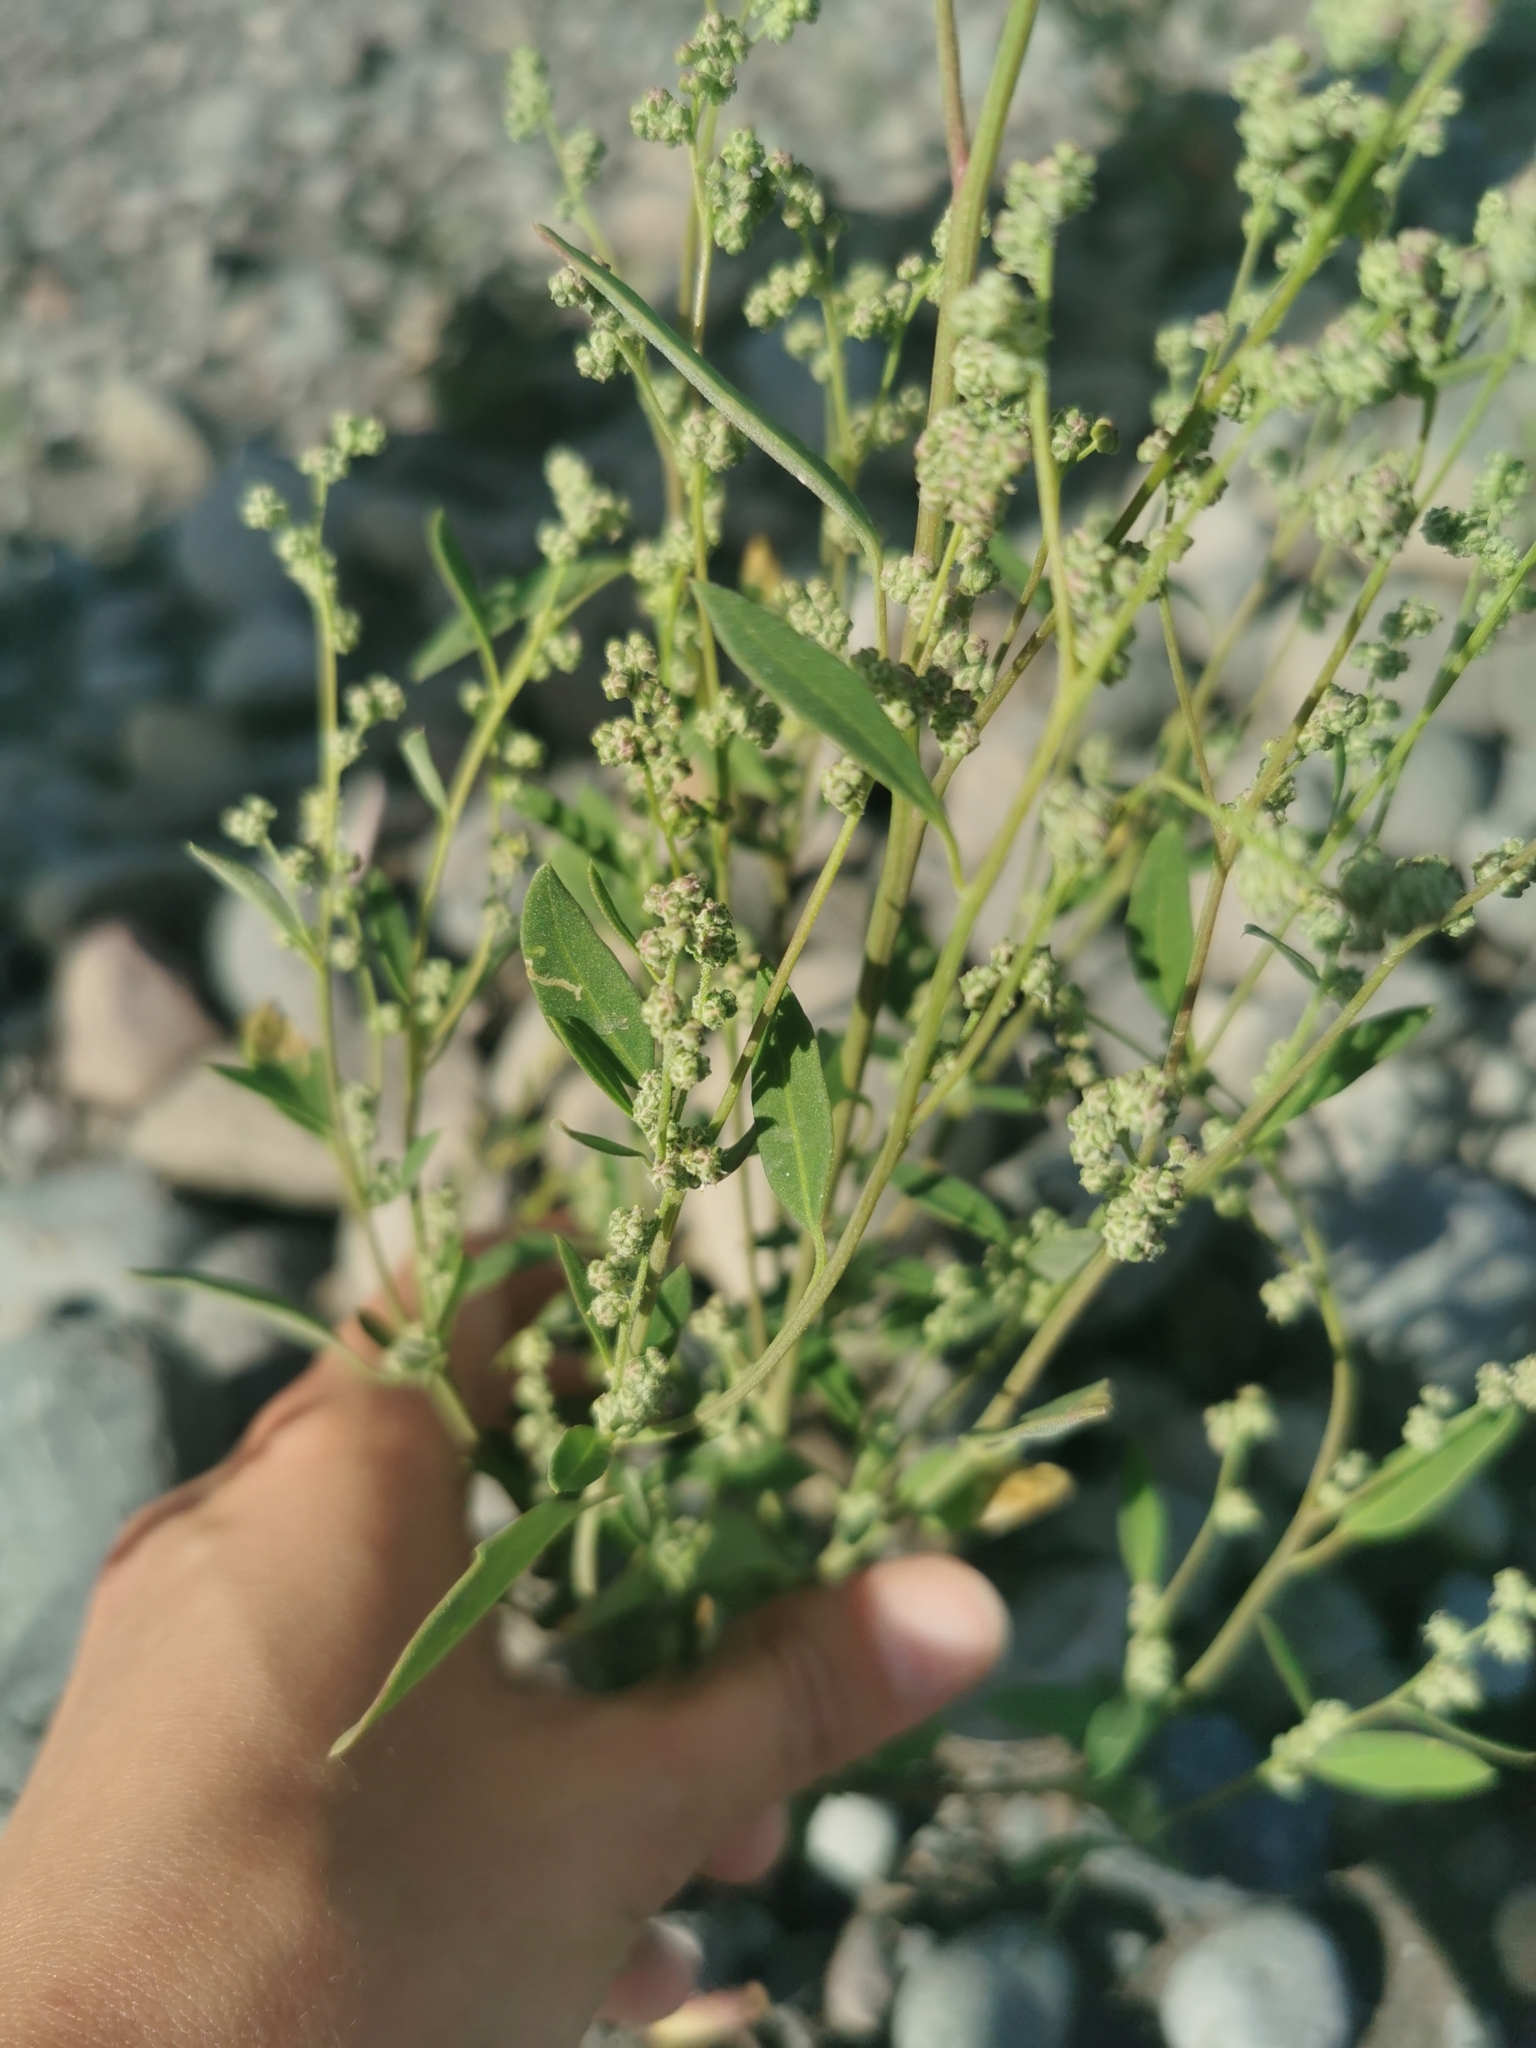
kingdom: Plantae
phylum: Tracheophyta
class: Magnoliopsida
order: Caryophyllales
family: Amaranthaceae
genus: Chenopodium
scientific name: Chenopodium album
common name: Fat-hen
